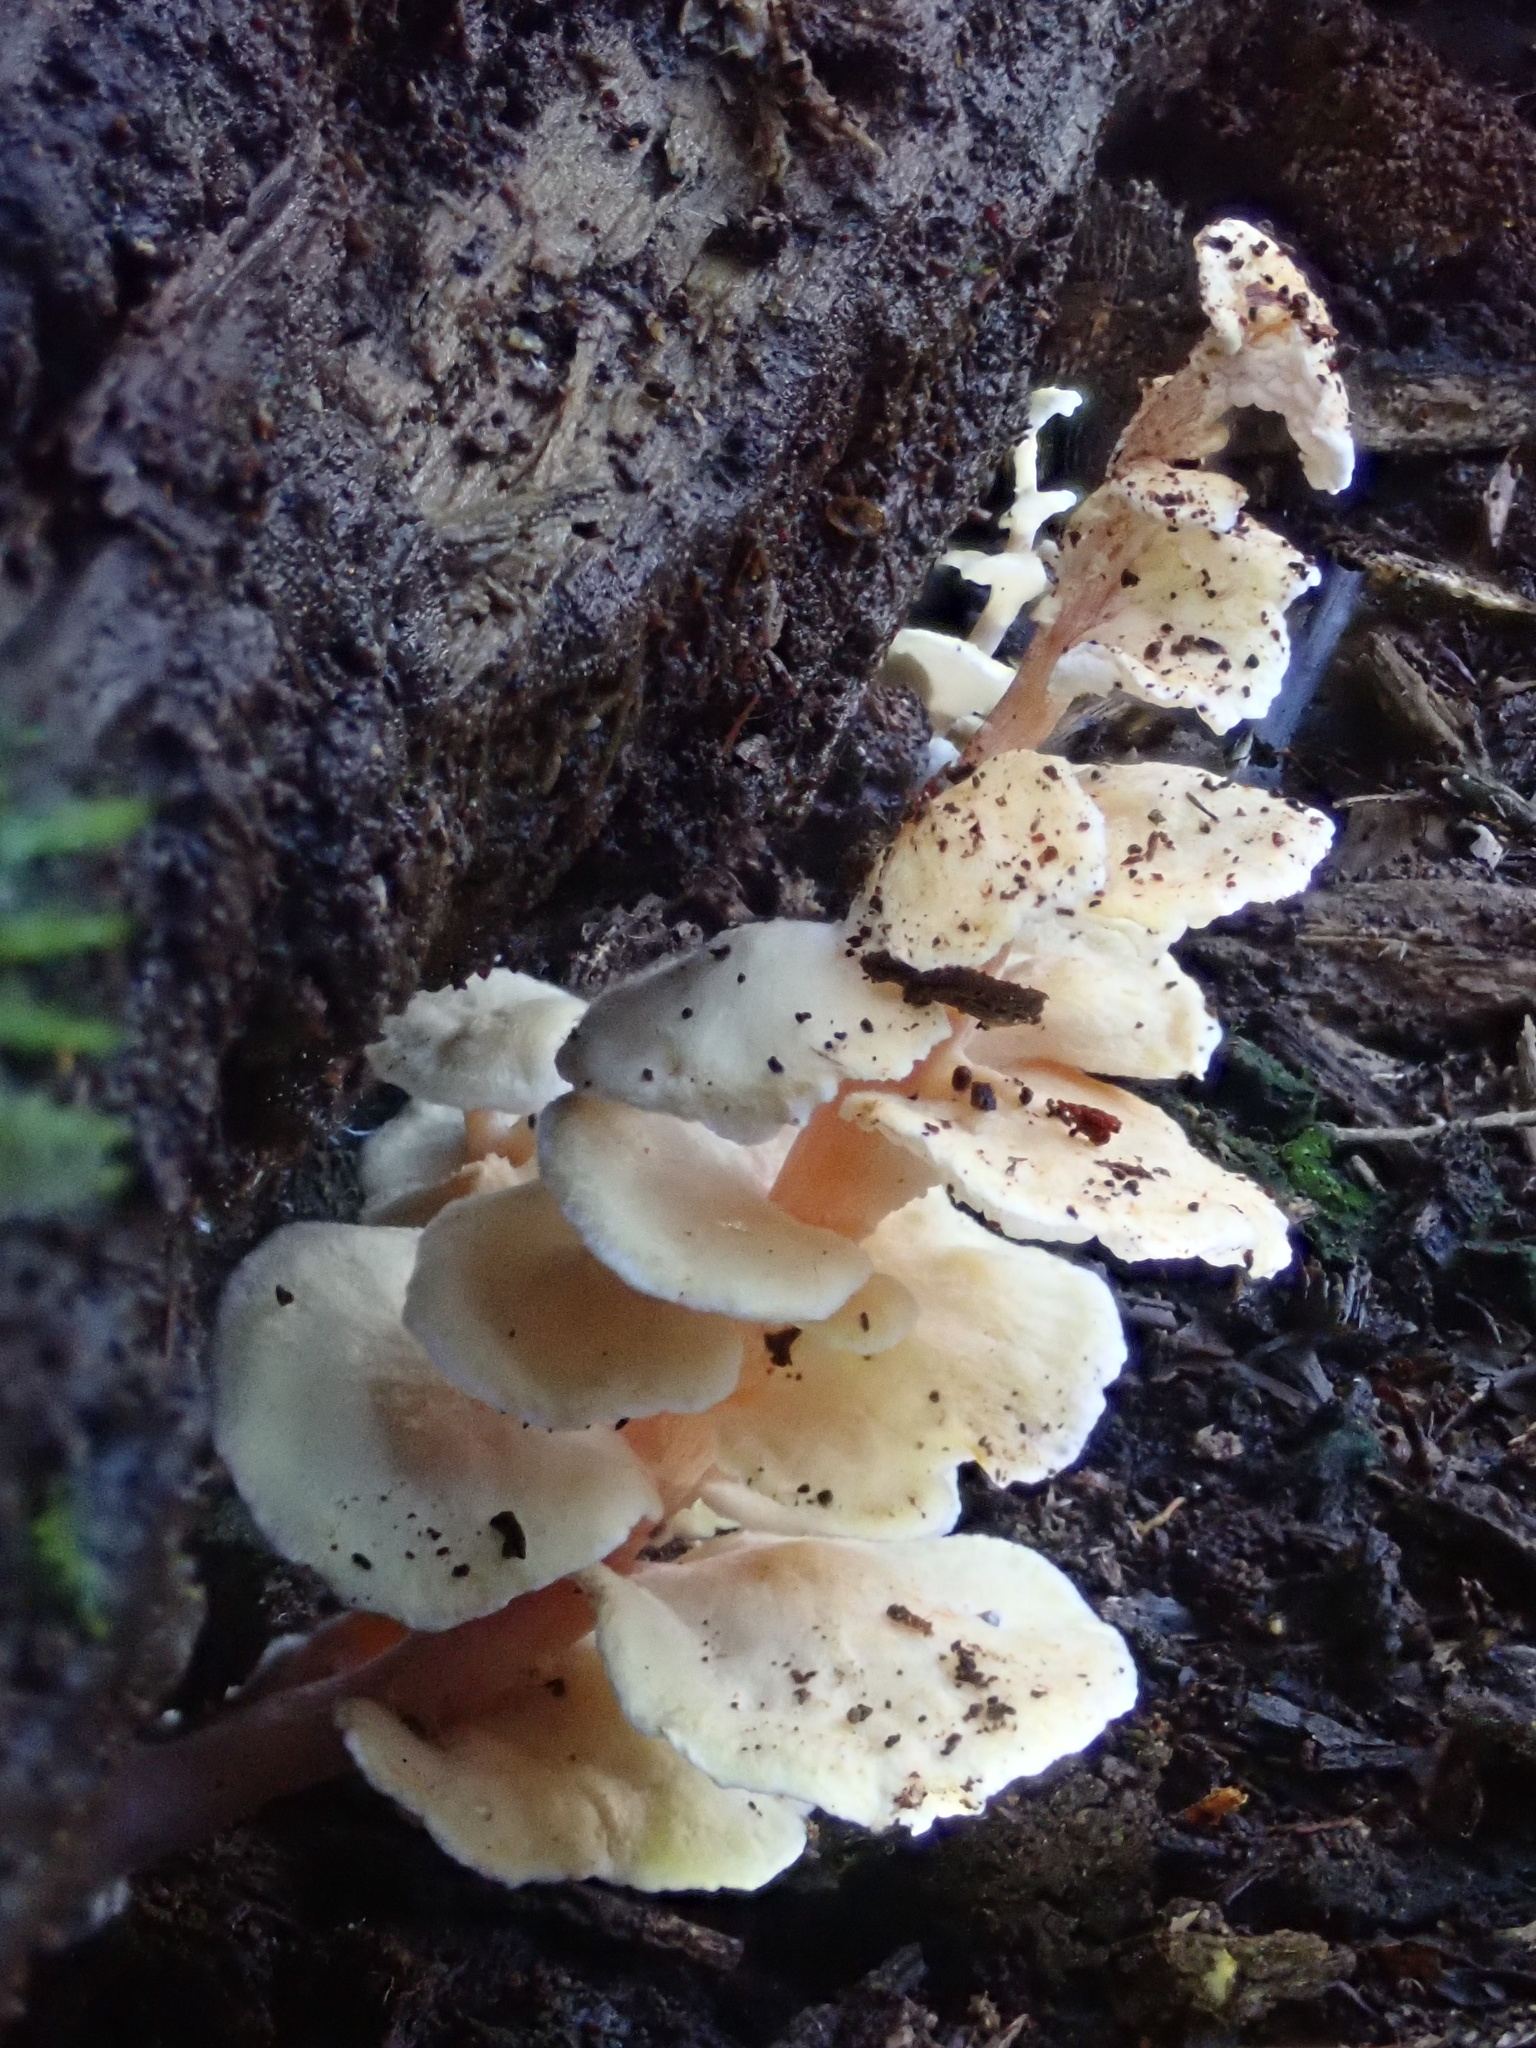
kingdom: Fungi
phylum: Basidiomycota
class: Agaricomycetes
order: Amylocorticiales
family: Amylocorticiaceae
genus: Podoserpula
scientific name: Podoserpula pusio
